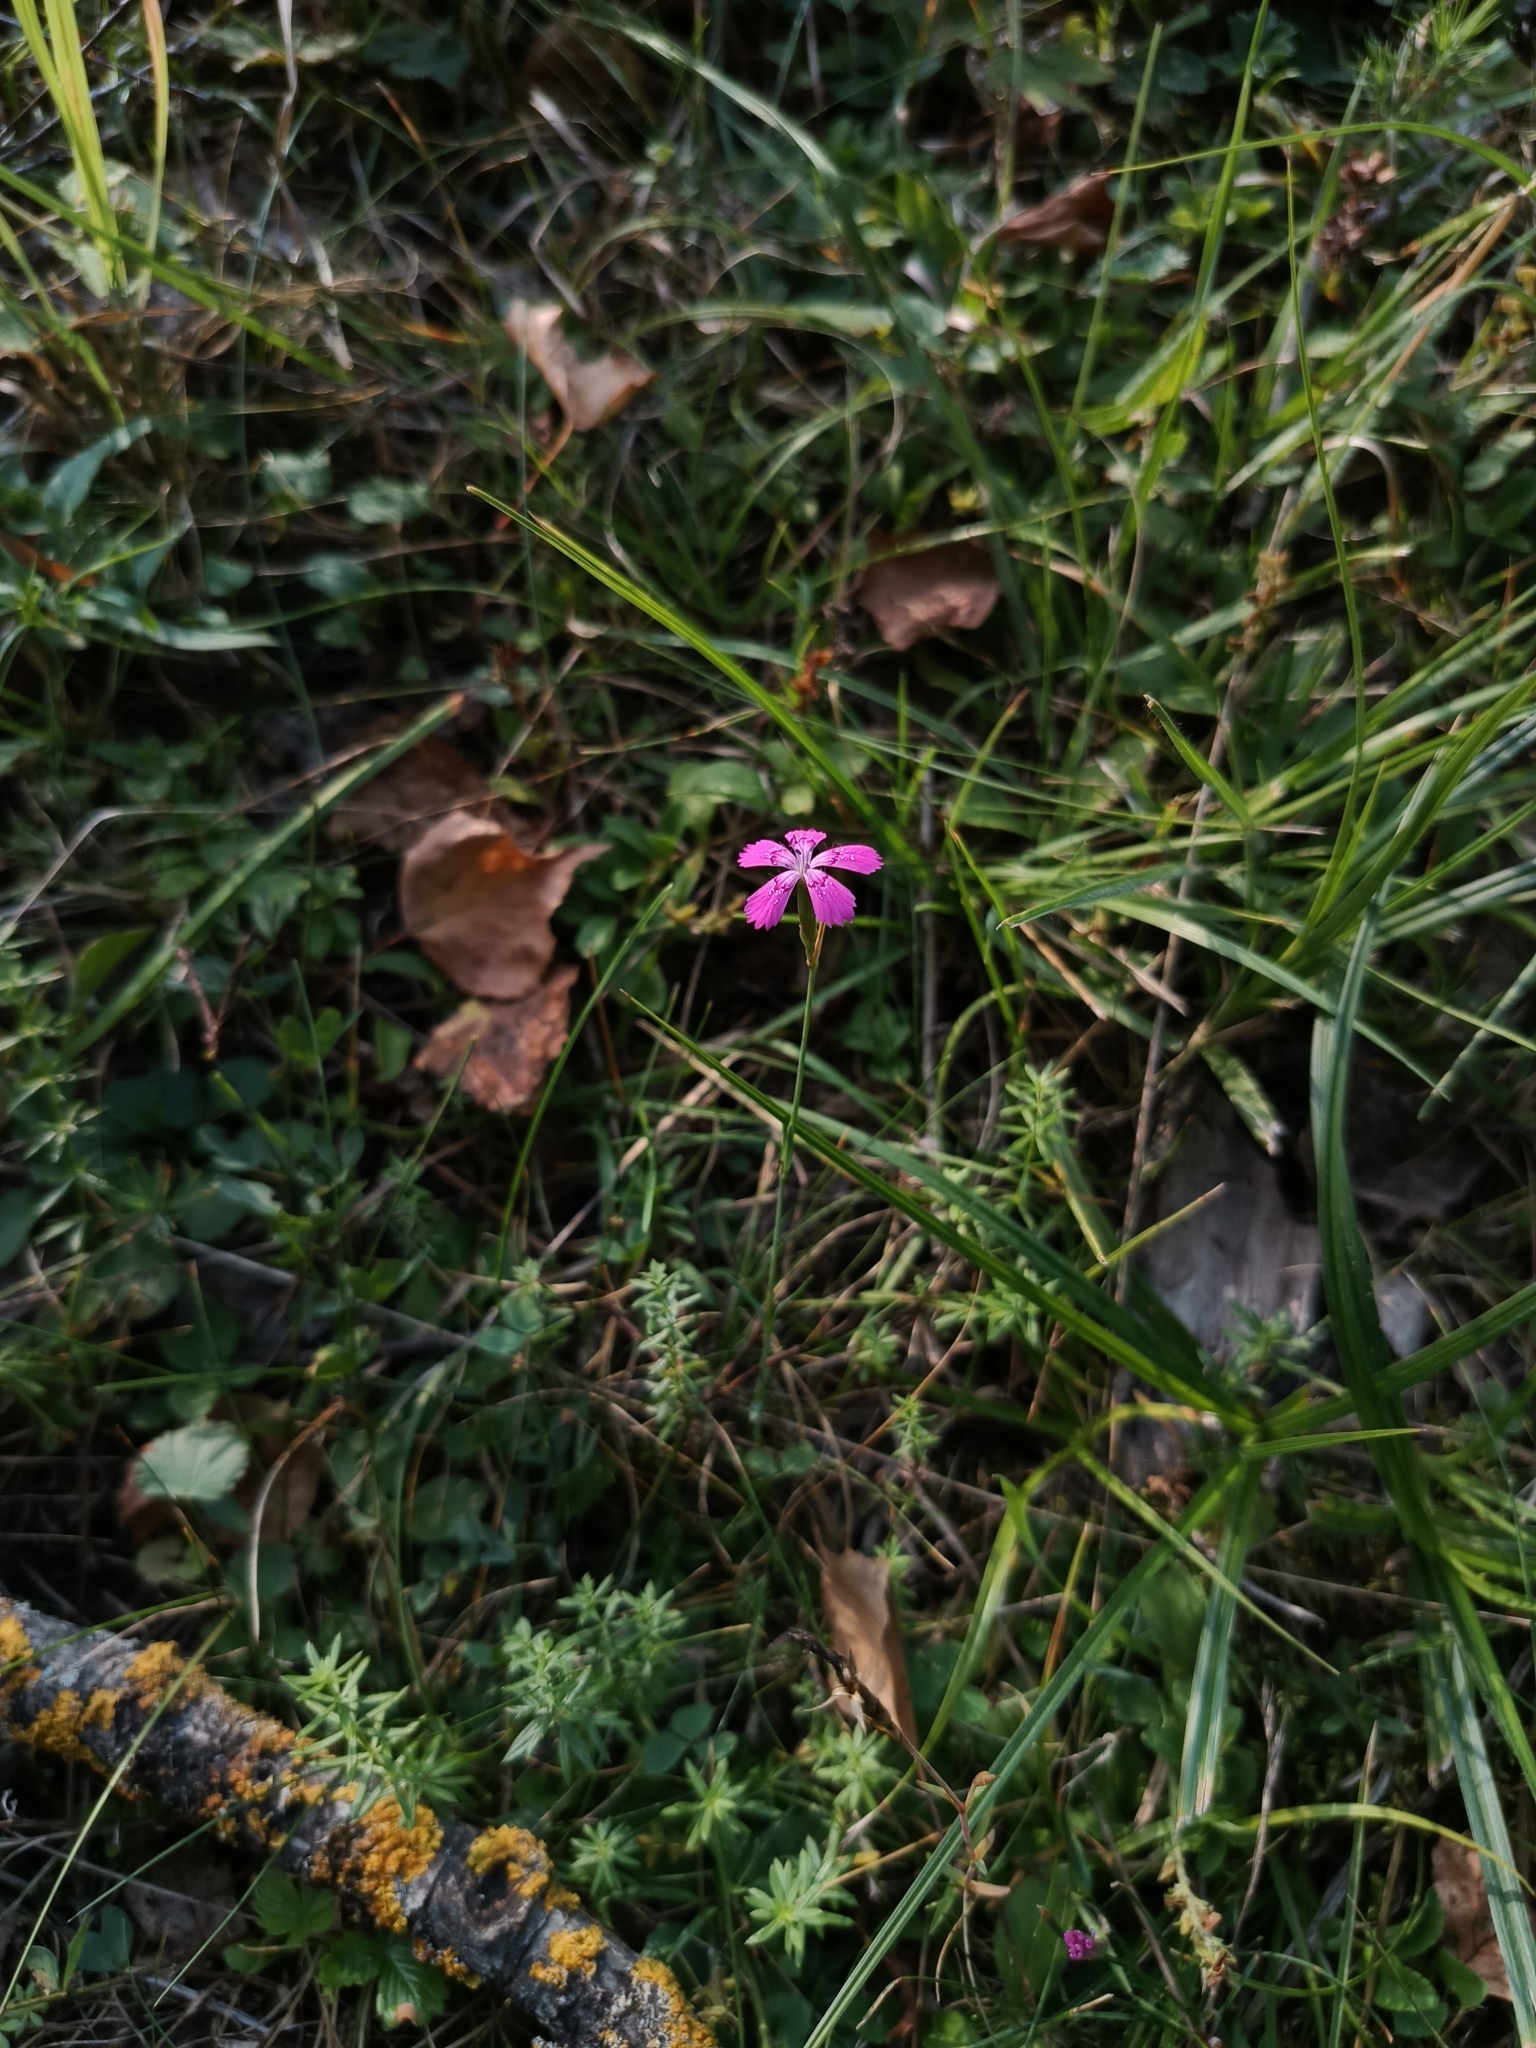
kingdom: Plantae
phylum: Tracheophyta
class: Magnoliopsida
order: Caryophyllales
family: Caryophyllaceae
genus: Dianthus
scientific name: Dianthus deltoides
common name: Maiden pink
